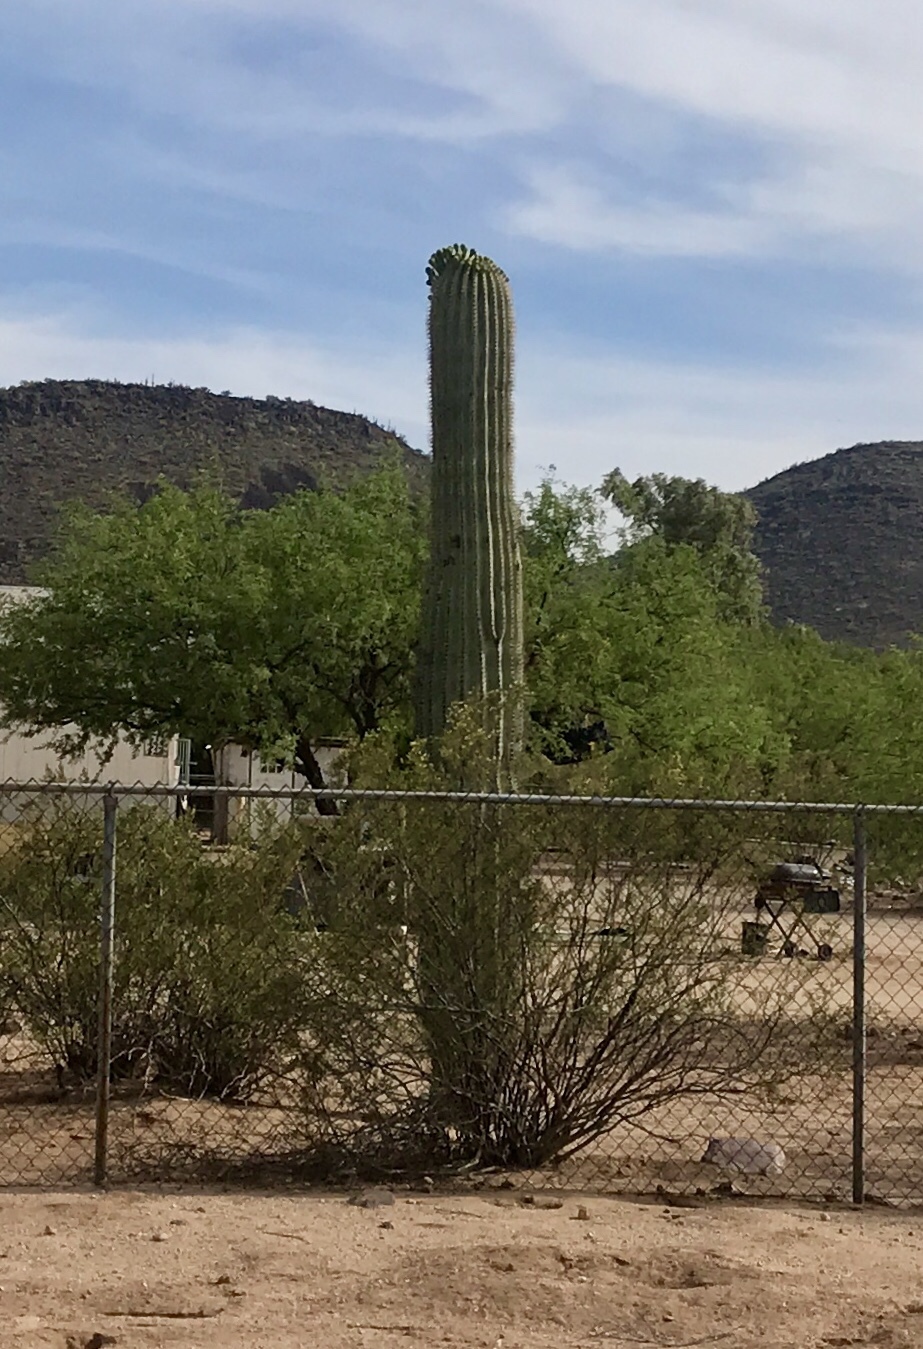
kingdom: Plantae
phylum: Tracheophyta
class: Magnoliopsida
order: Caryophyllales
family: Cactaceae
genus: Carnegiea
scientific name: Carnegiea gigantea
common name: Saguaro
